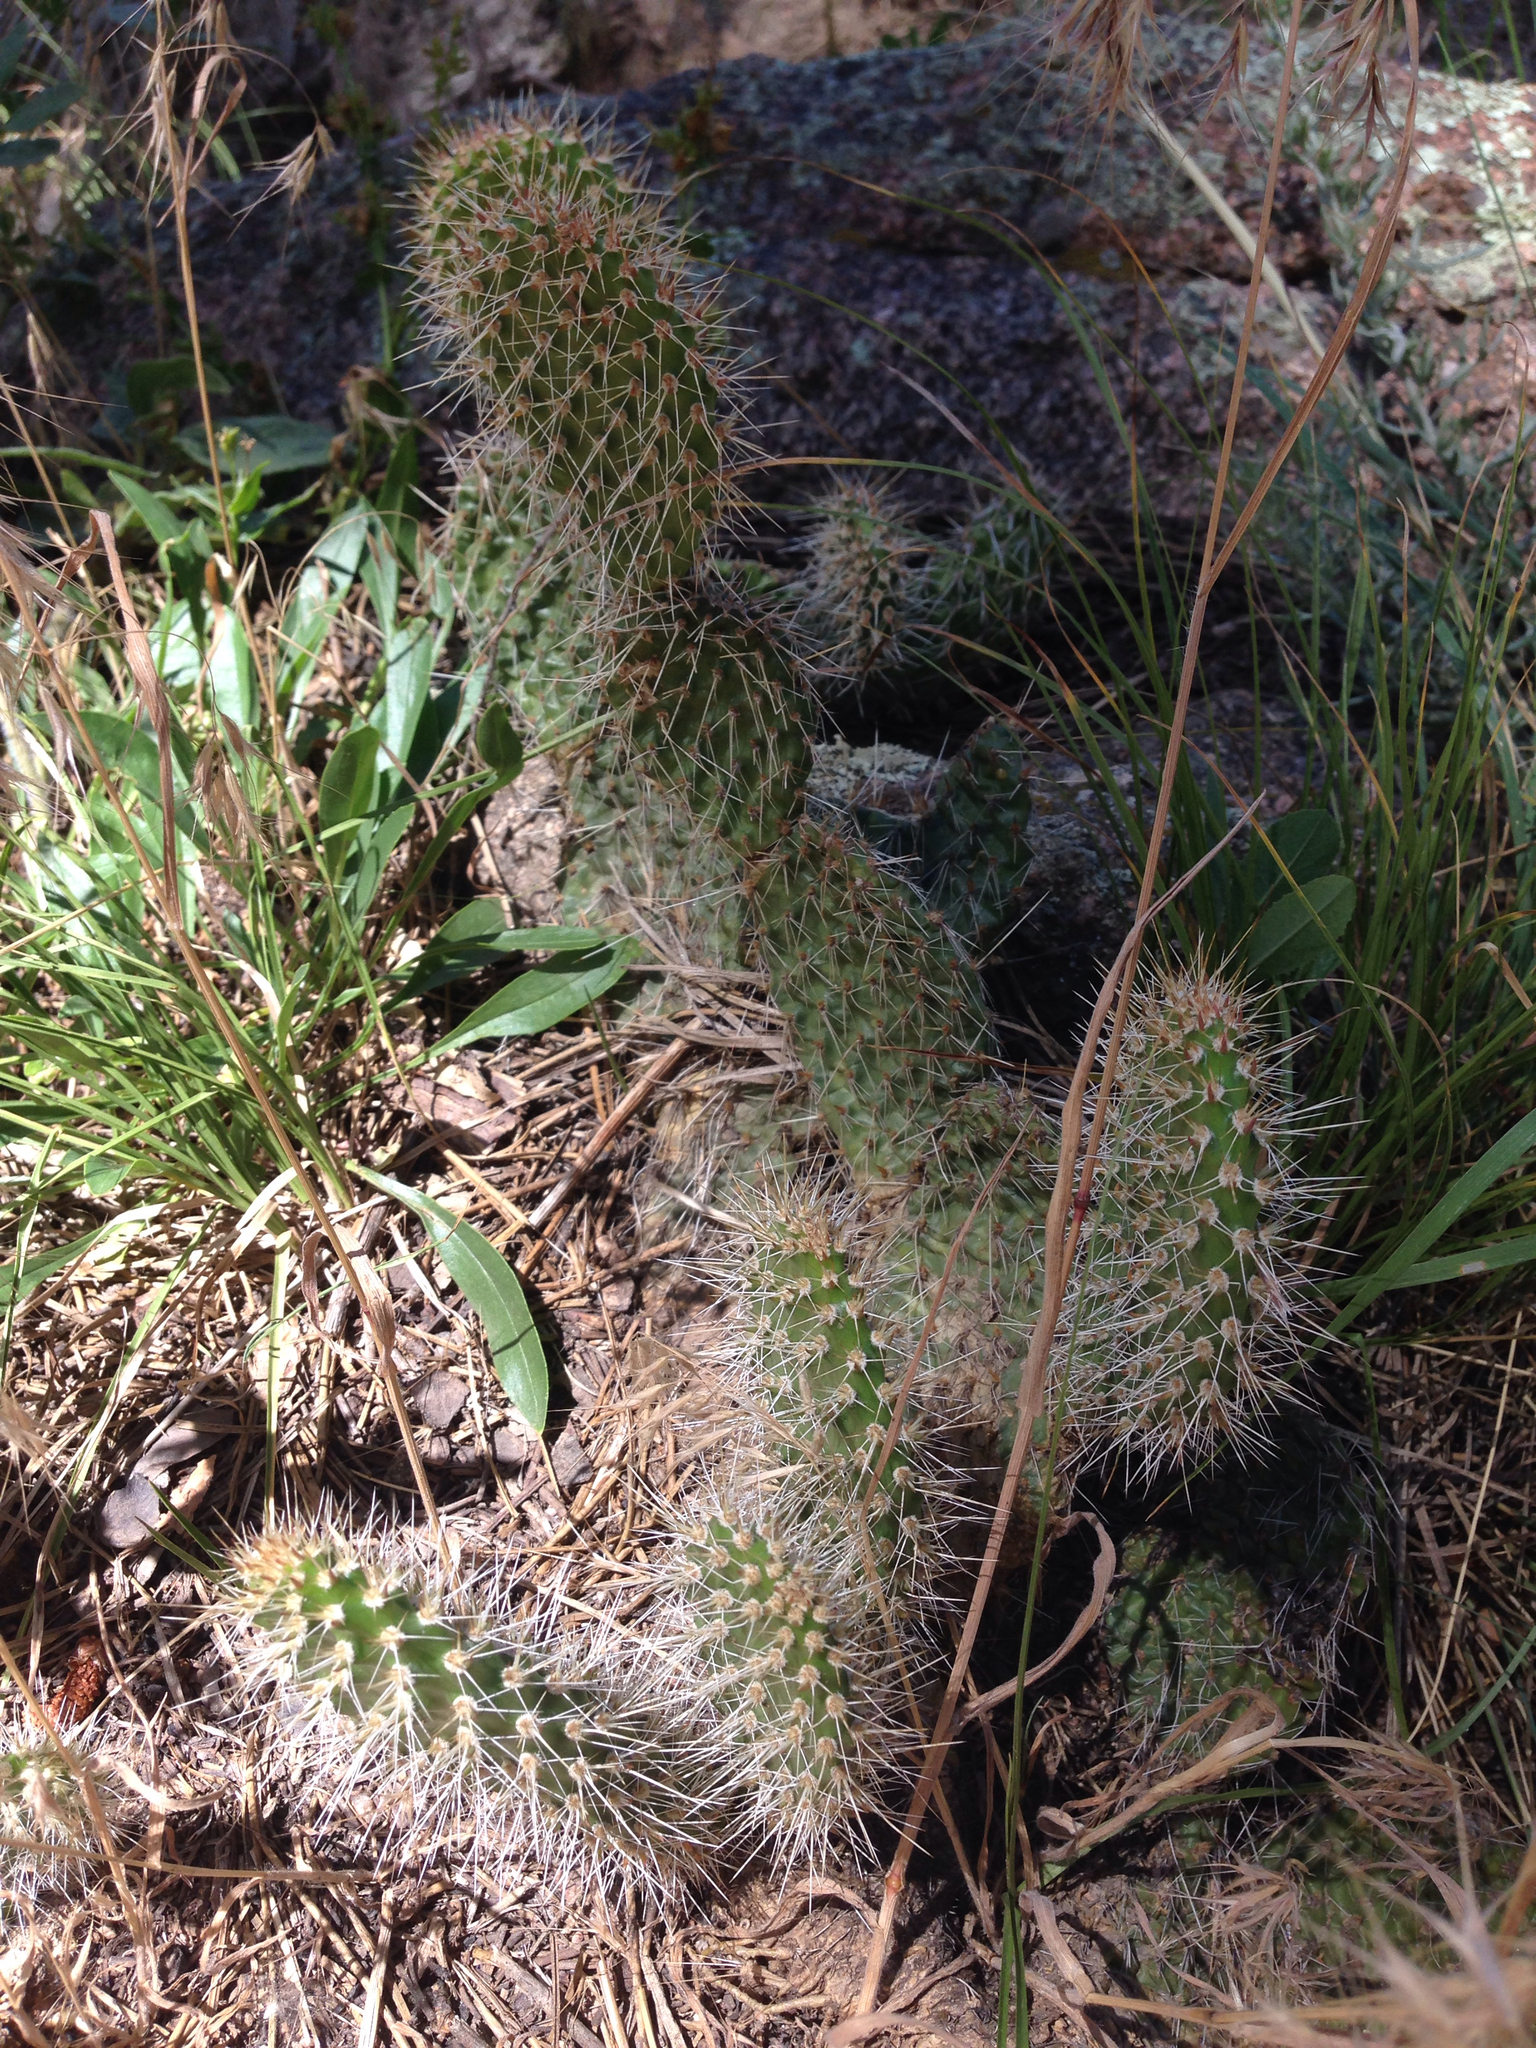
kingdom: Plantae
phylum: Tracheophyta
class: Magnoliopsida
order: Caryophyllales
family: Cactaceae
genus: Opuntia
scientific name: Opuntia polyacantha
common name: Plains prickly-pear
